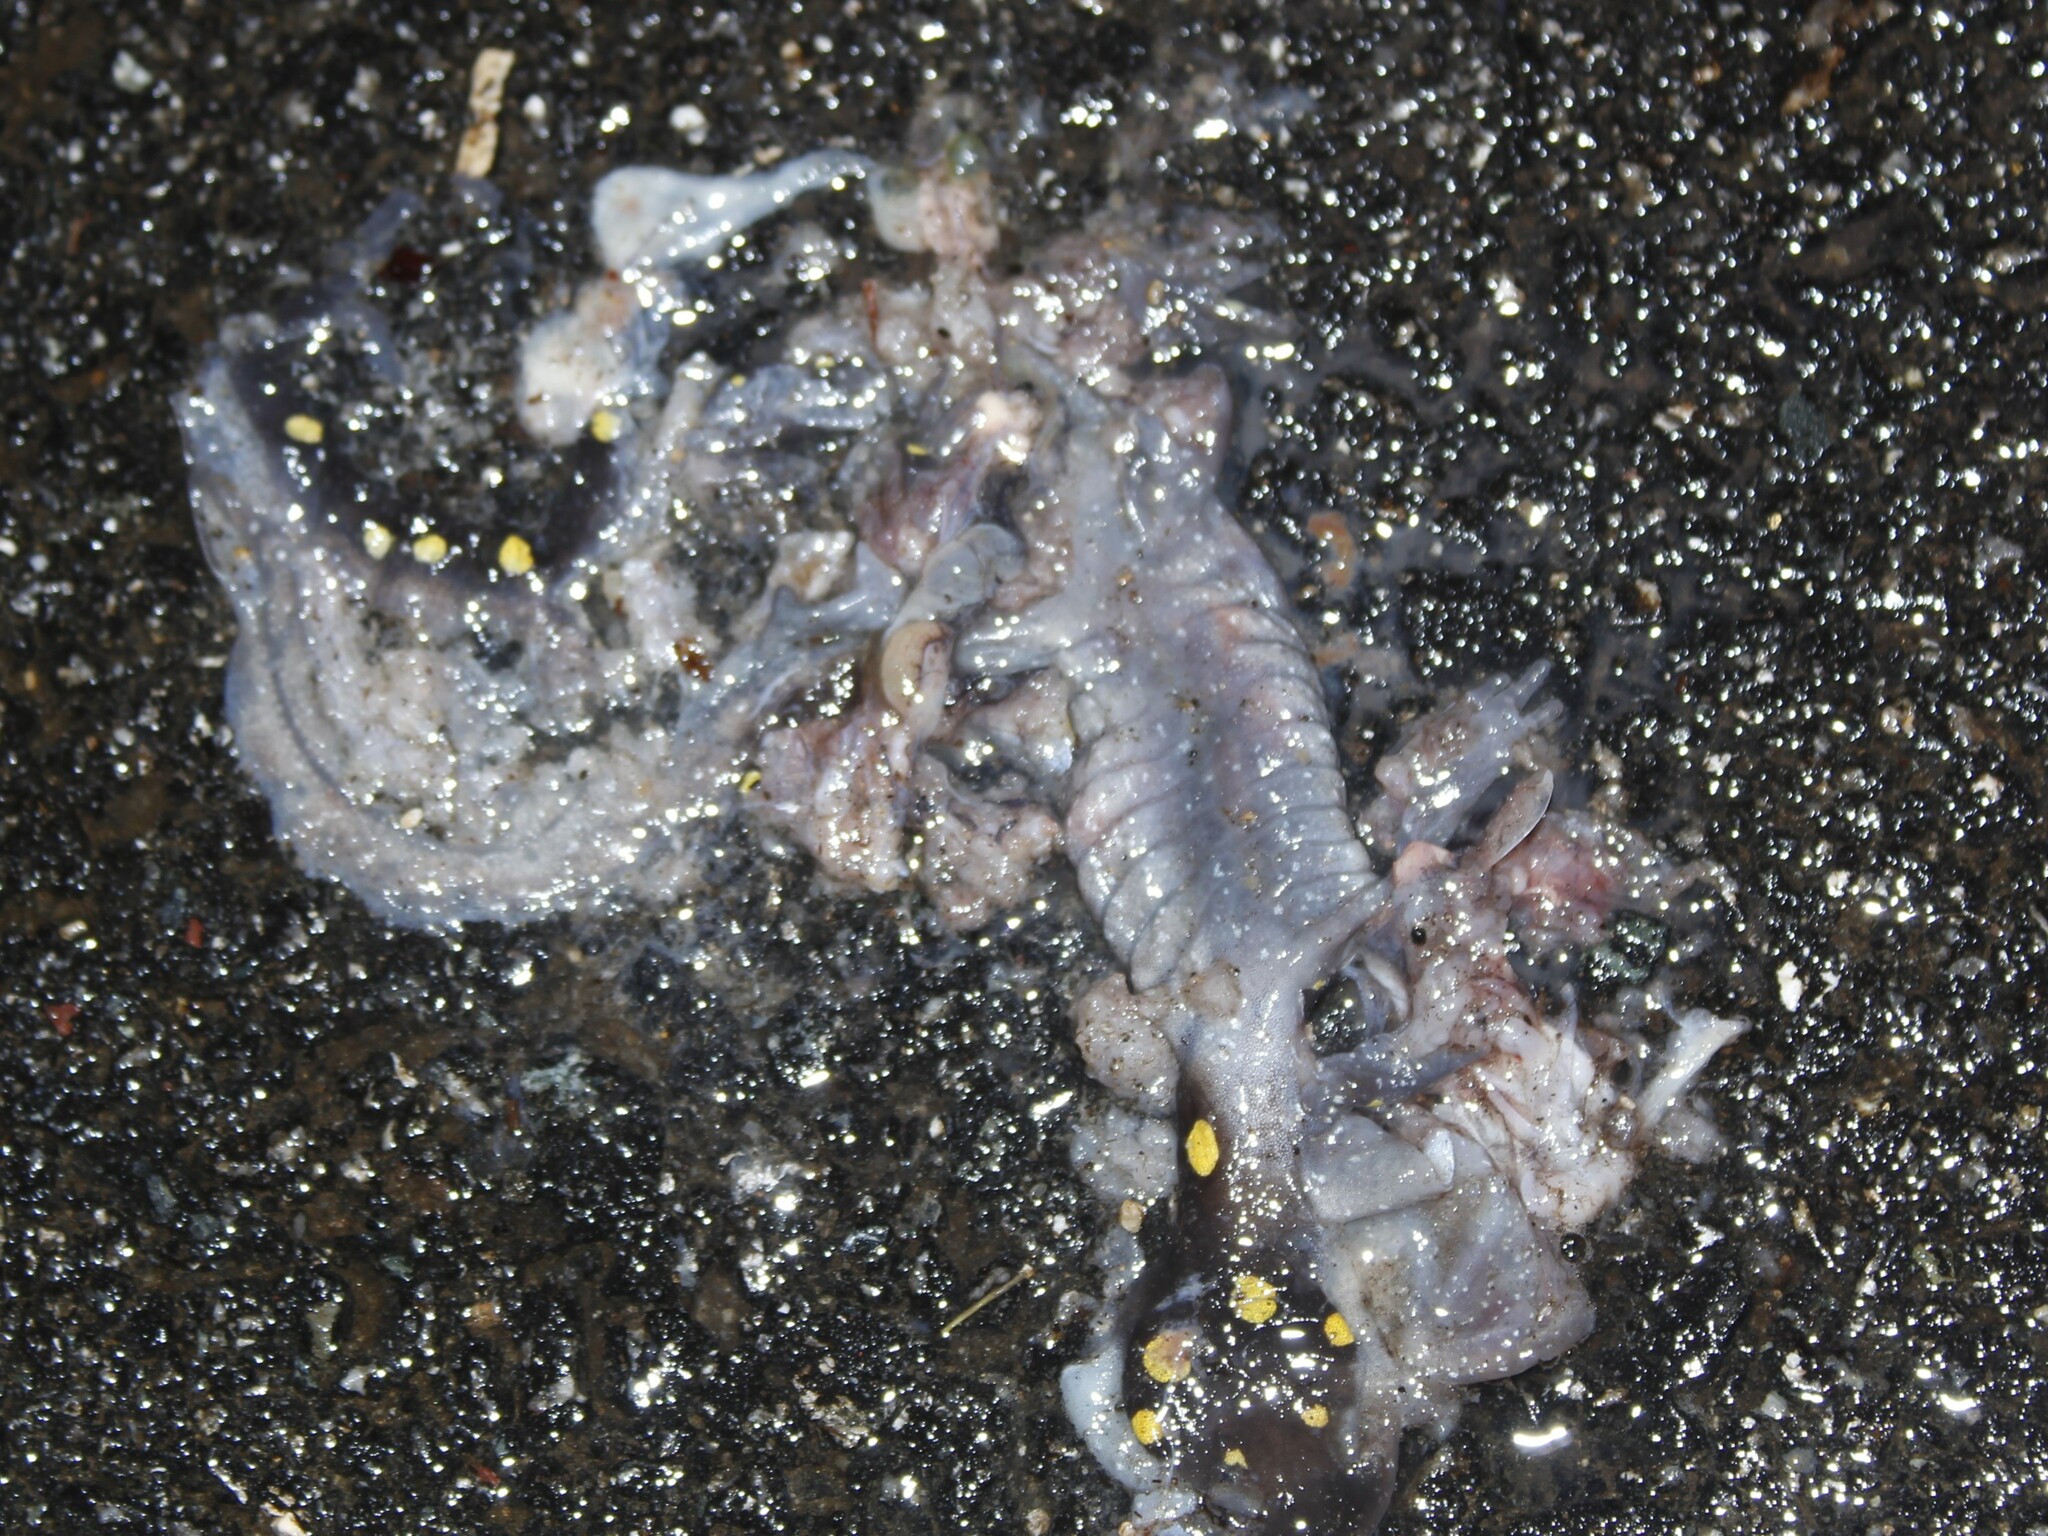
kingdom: Animalia
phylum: Chordata
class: Amphibia
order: Caudata
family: Ambystomatidae
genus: Ambystoma
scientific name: Ambystoma maculatum
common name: Spotted salamander
